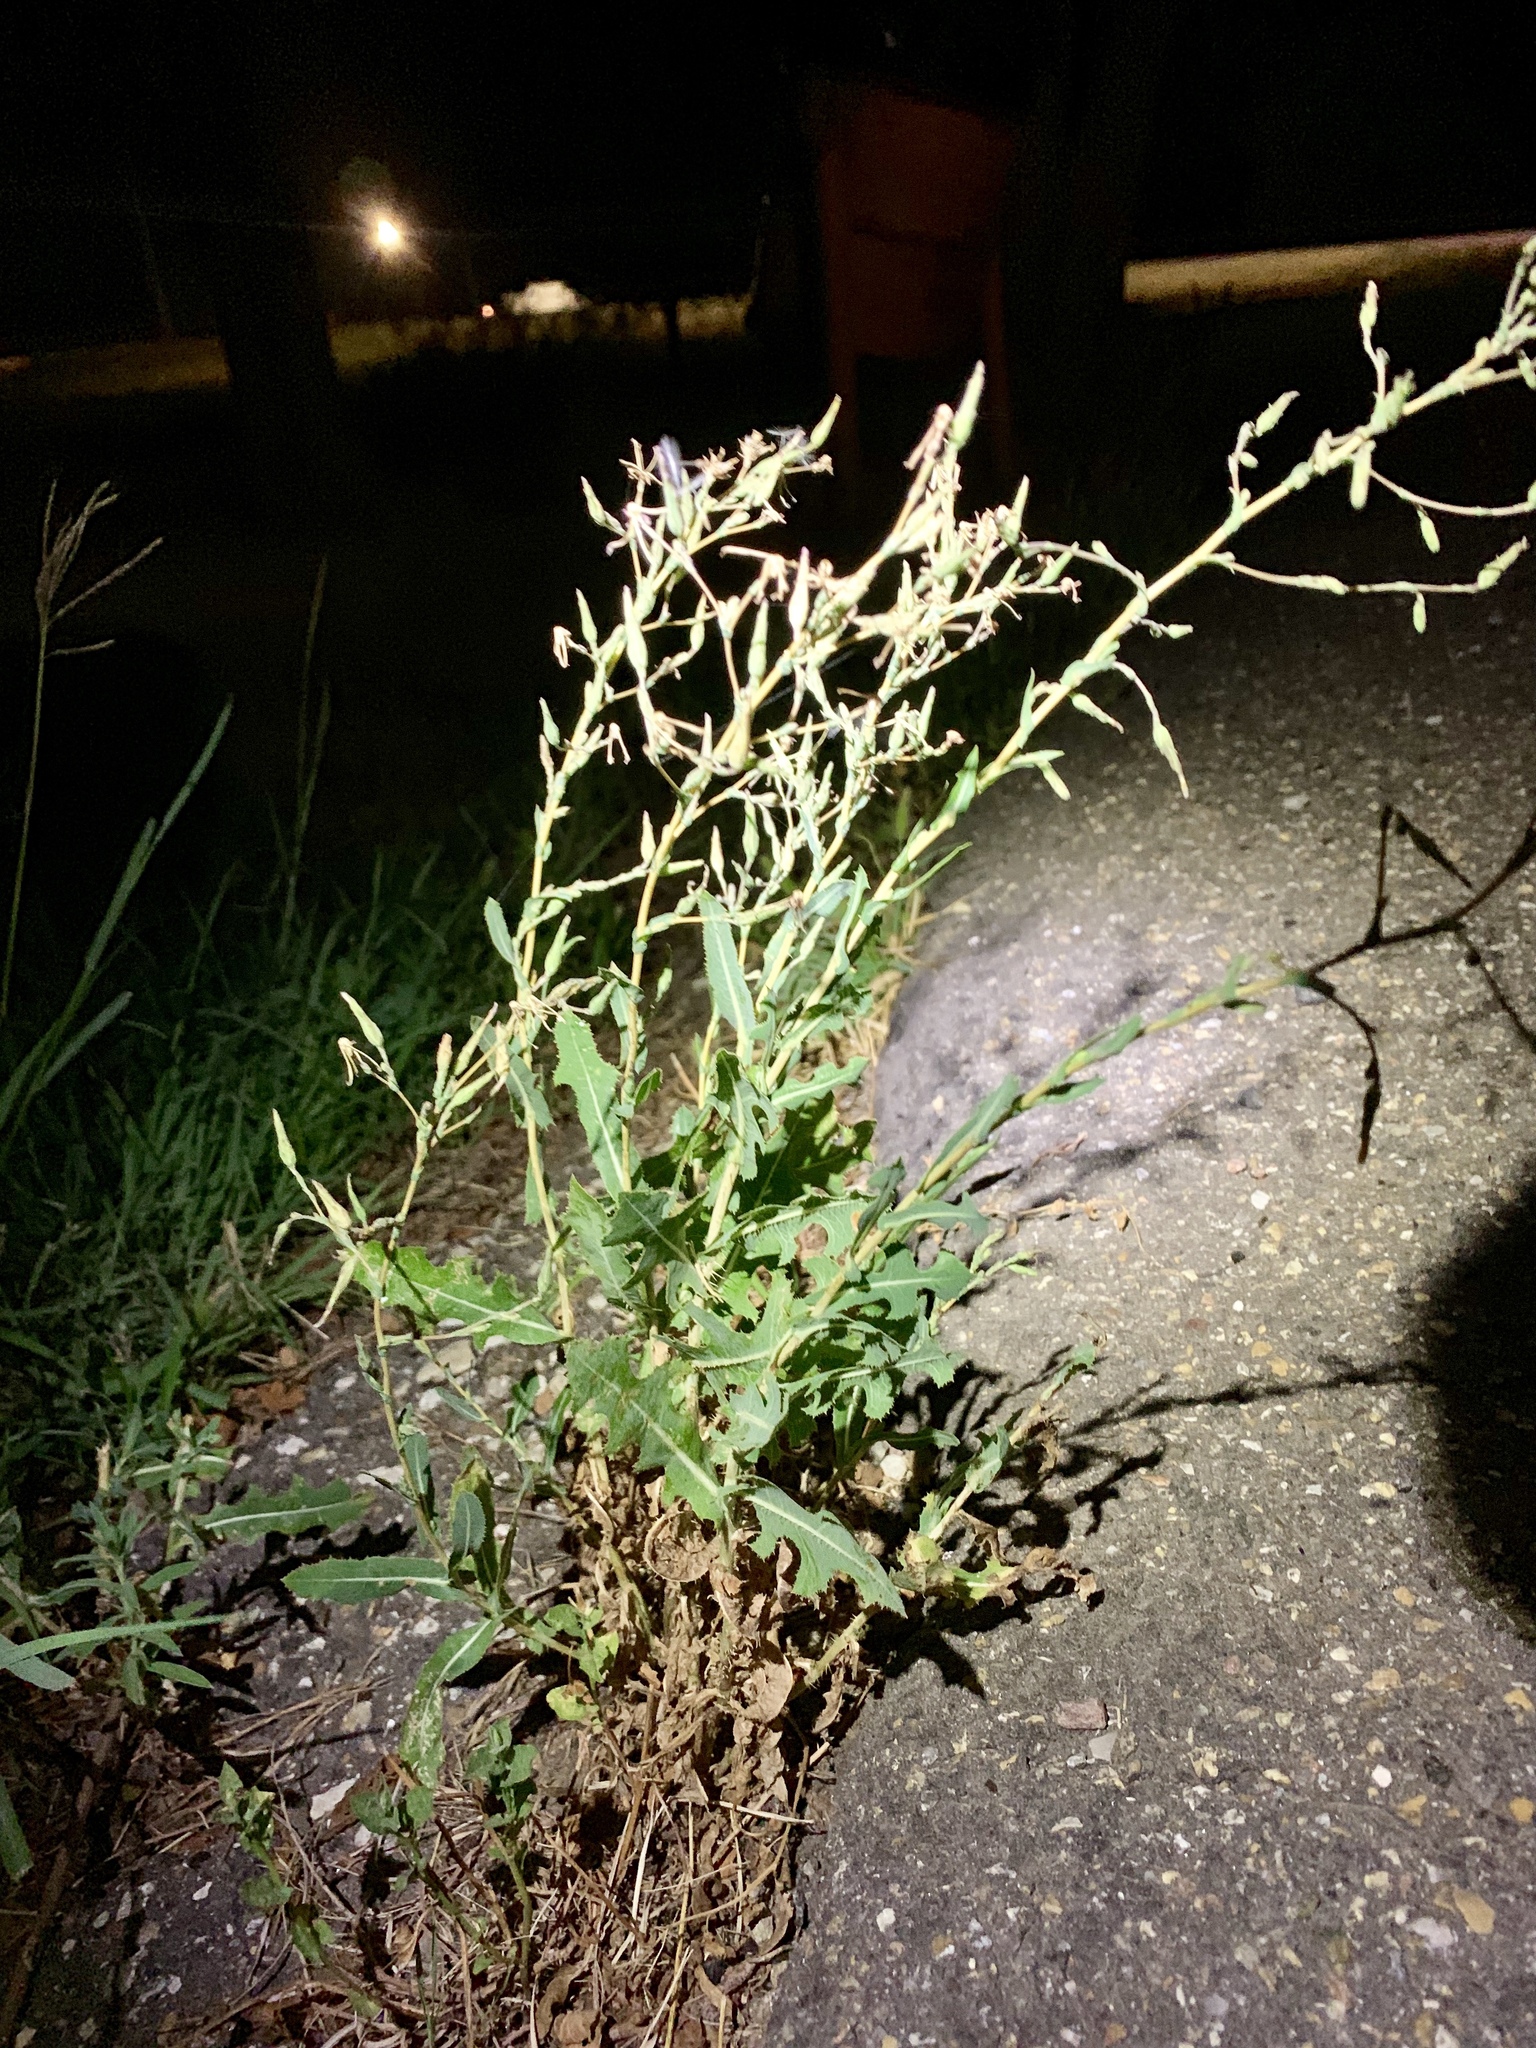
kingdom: Plantae
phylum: Tracheophyta
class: Magnoliopsida
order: Asterales
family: Asteraceae
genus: Lactuca
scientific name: Lactuca serriola
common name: Prickly lettuce
